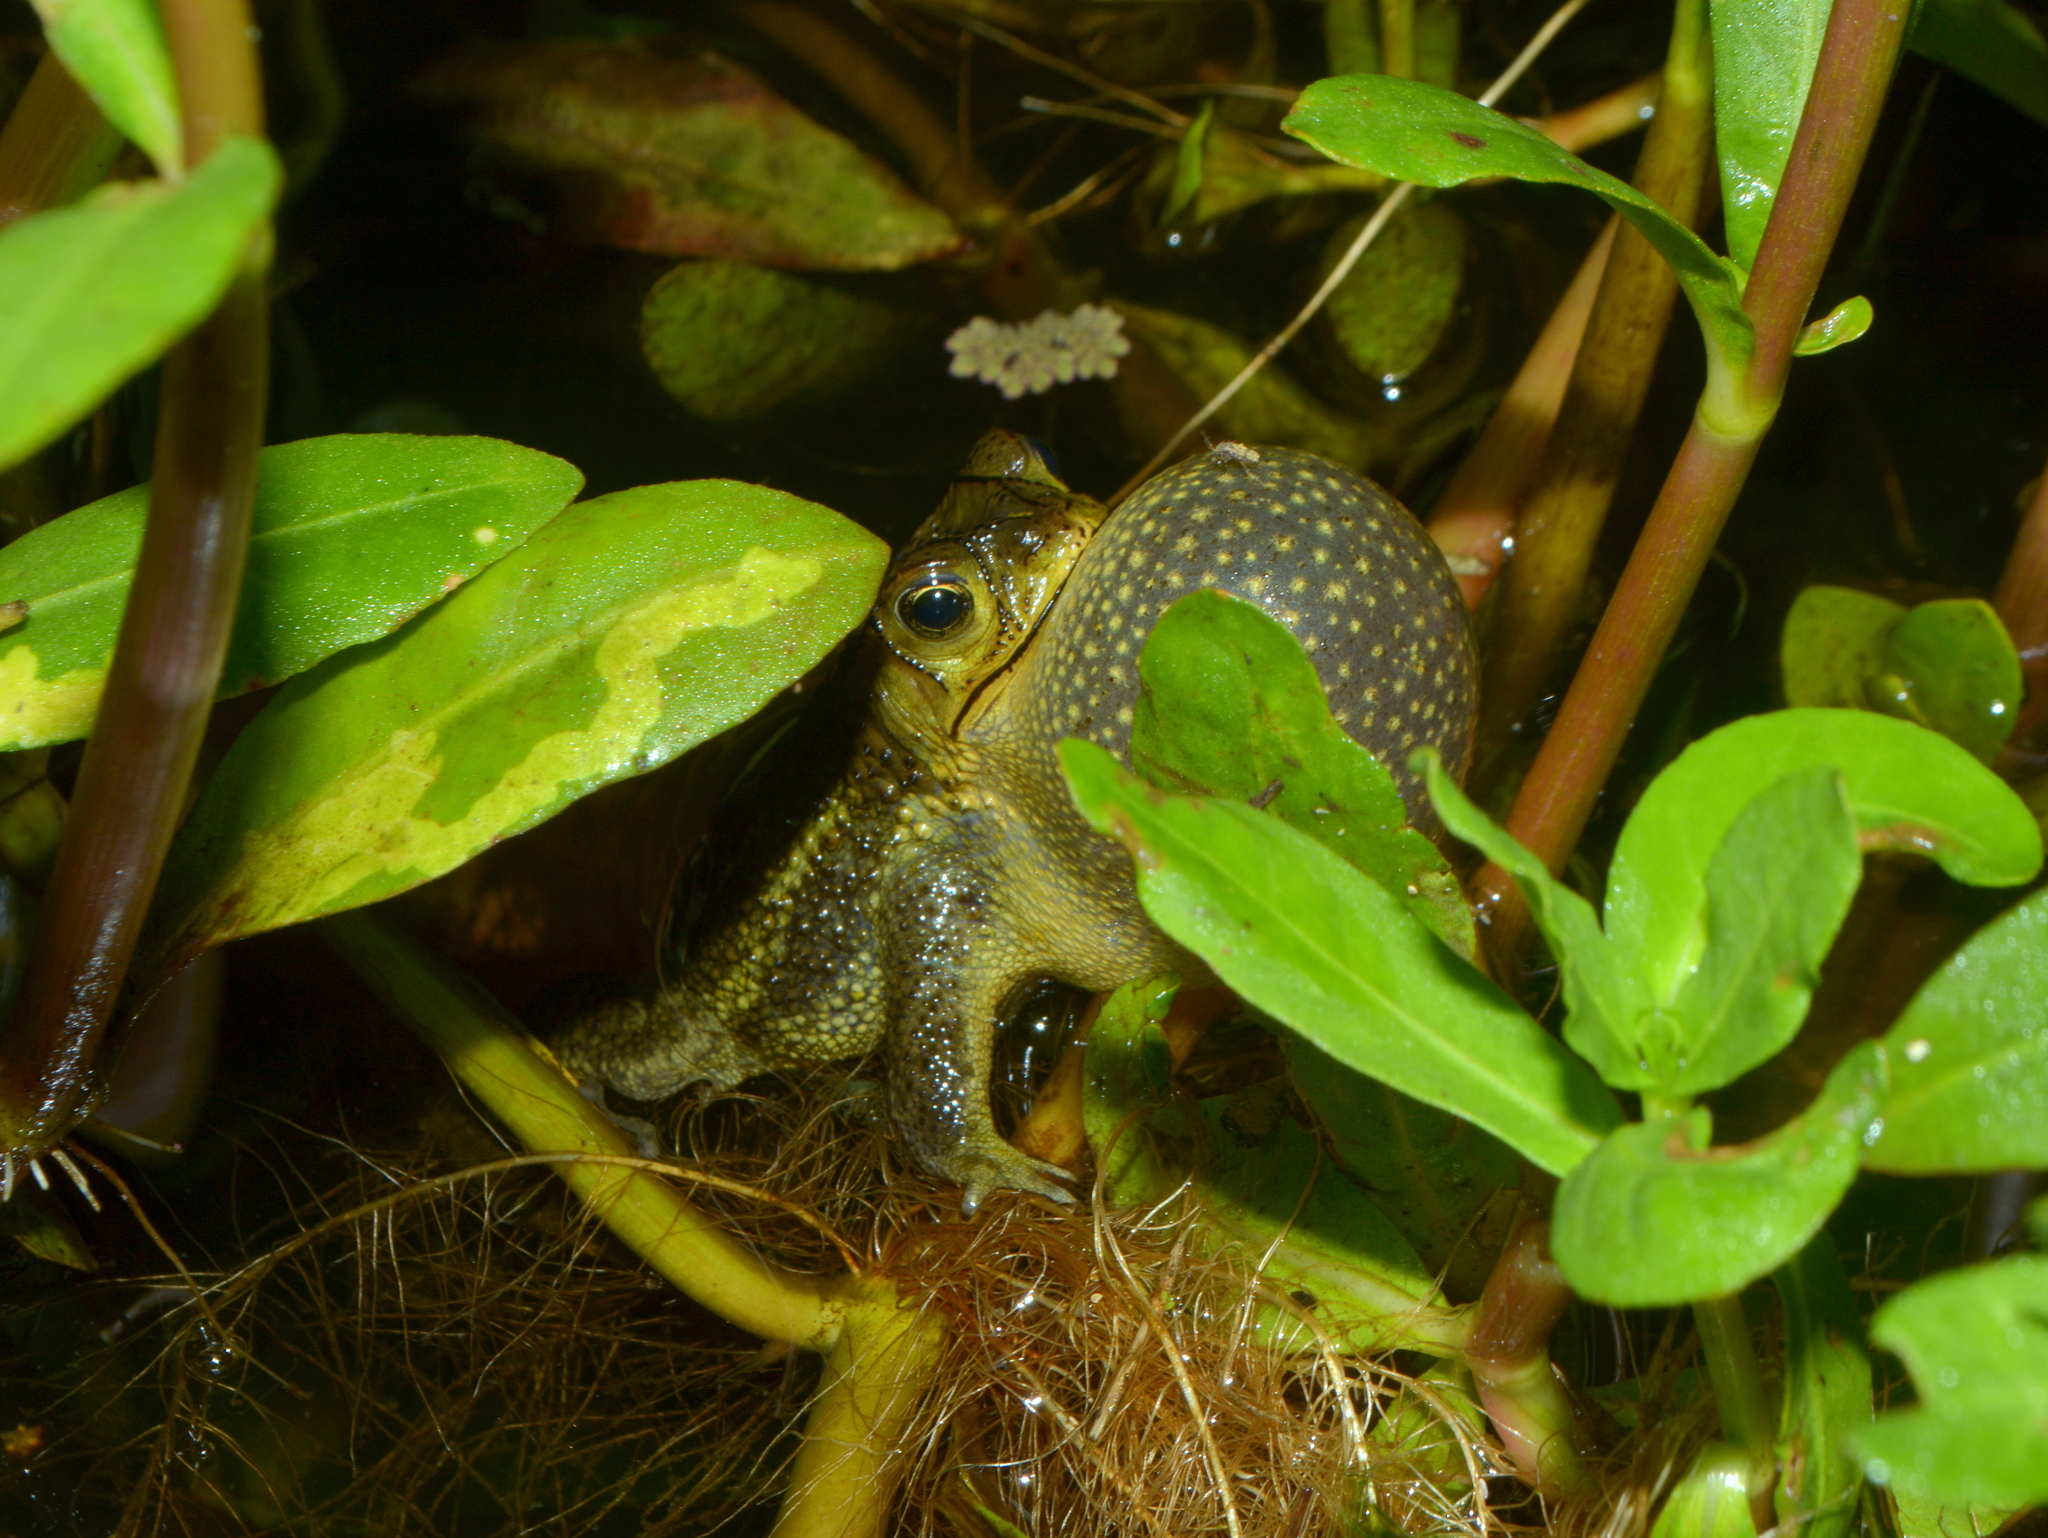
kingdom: Animalia
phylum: Chordata
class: Amphibia
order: Anura
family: Bufonidae
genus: Rhinella
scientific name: Rhinella dorbignyi
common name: D´orbigny’s toad
